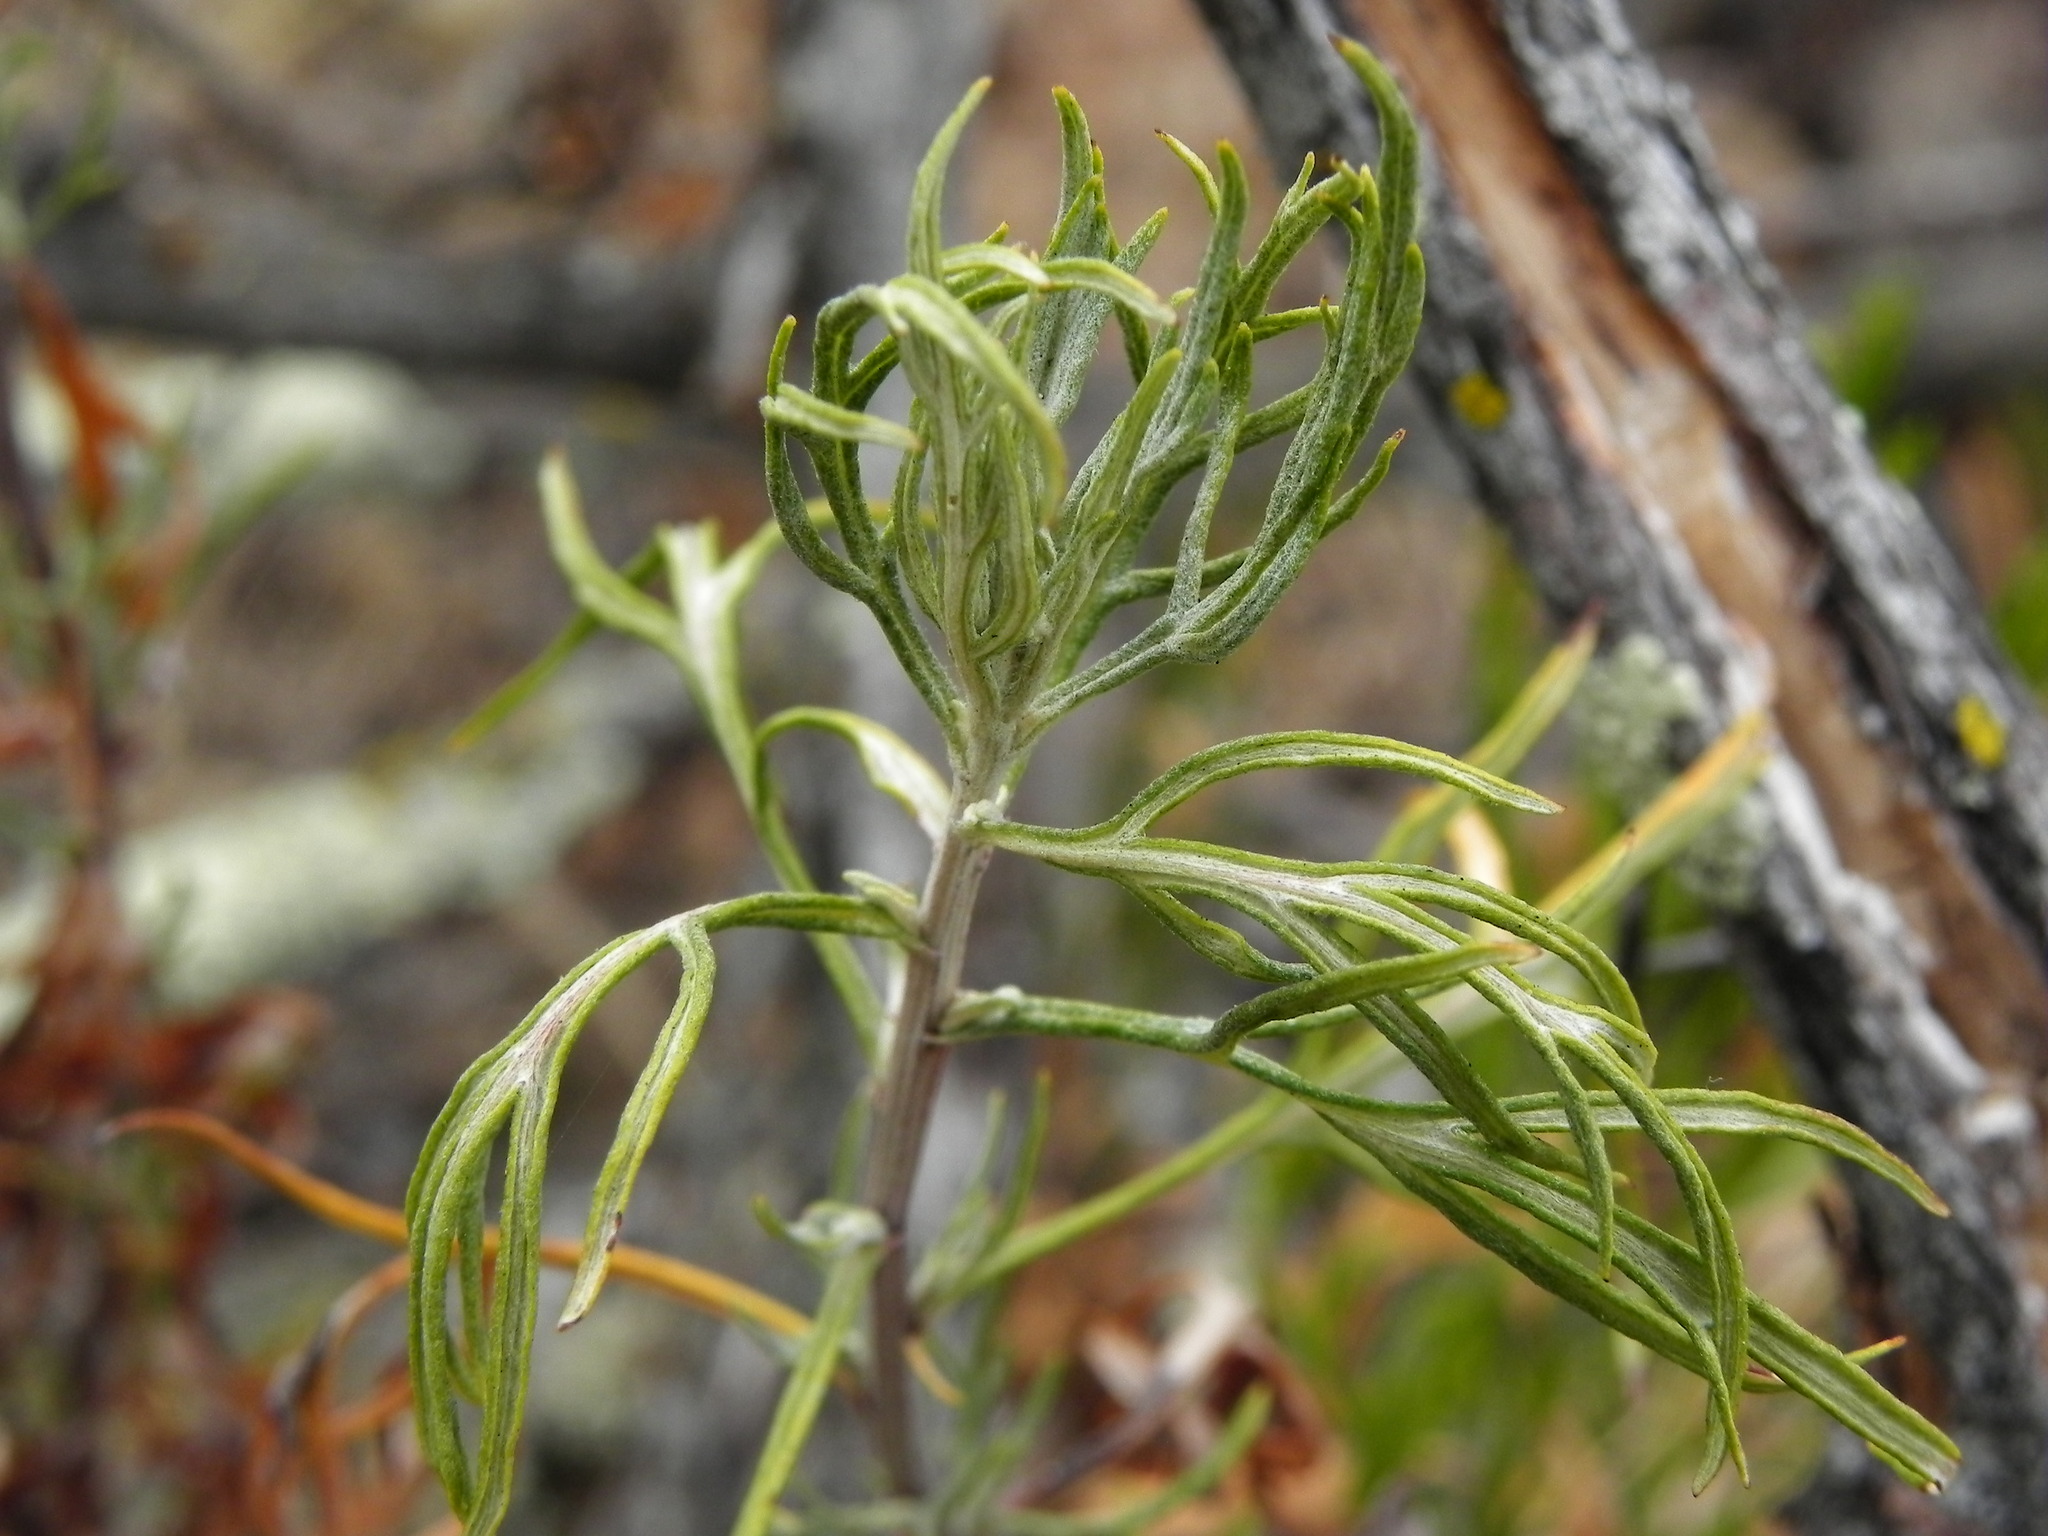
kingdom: Plantae
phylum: Tracheophyta
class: Magnoliopsida
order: Asterales
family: Asteraceae
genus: Artemisia
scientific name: Artemisia palmeri
